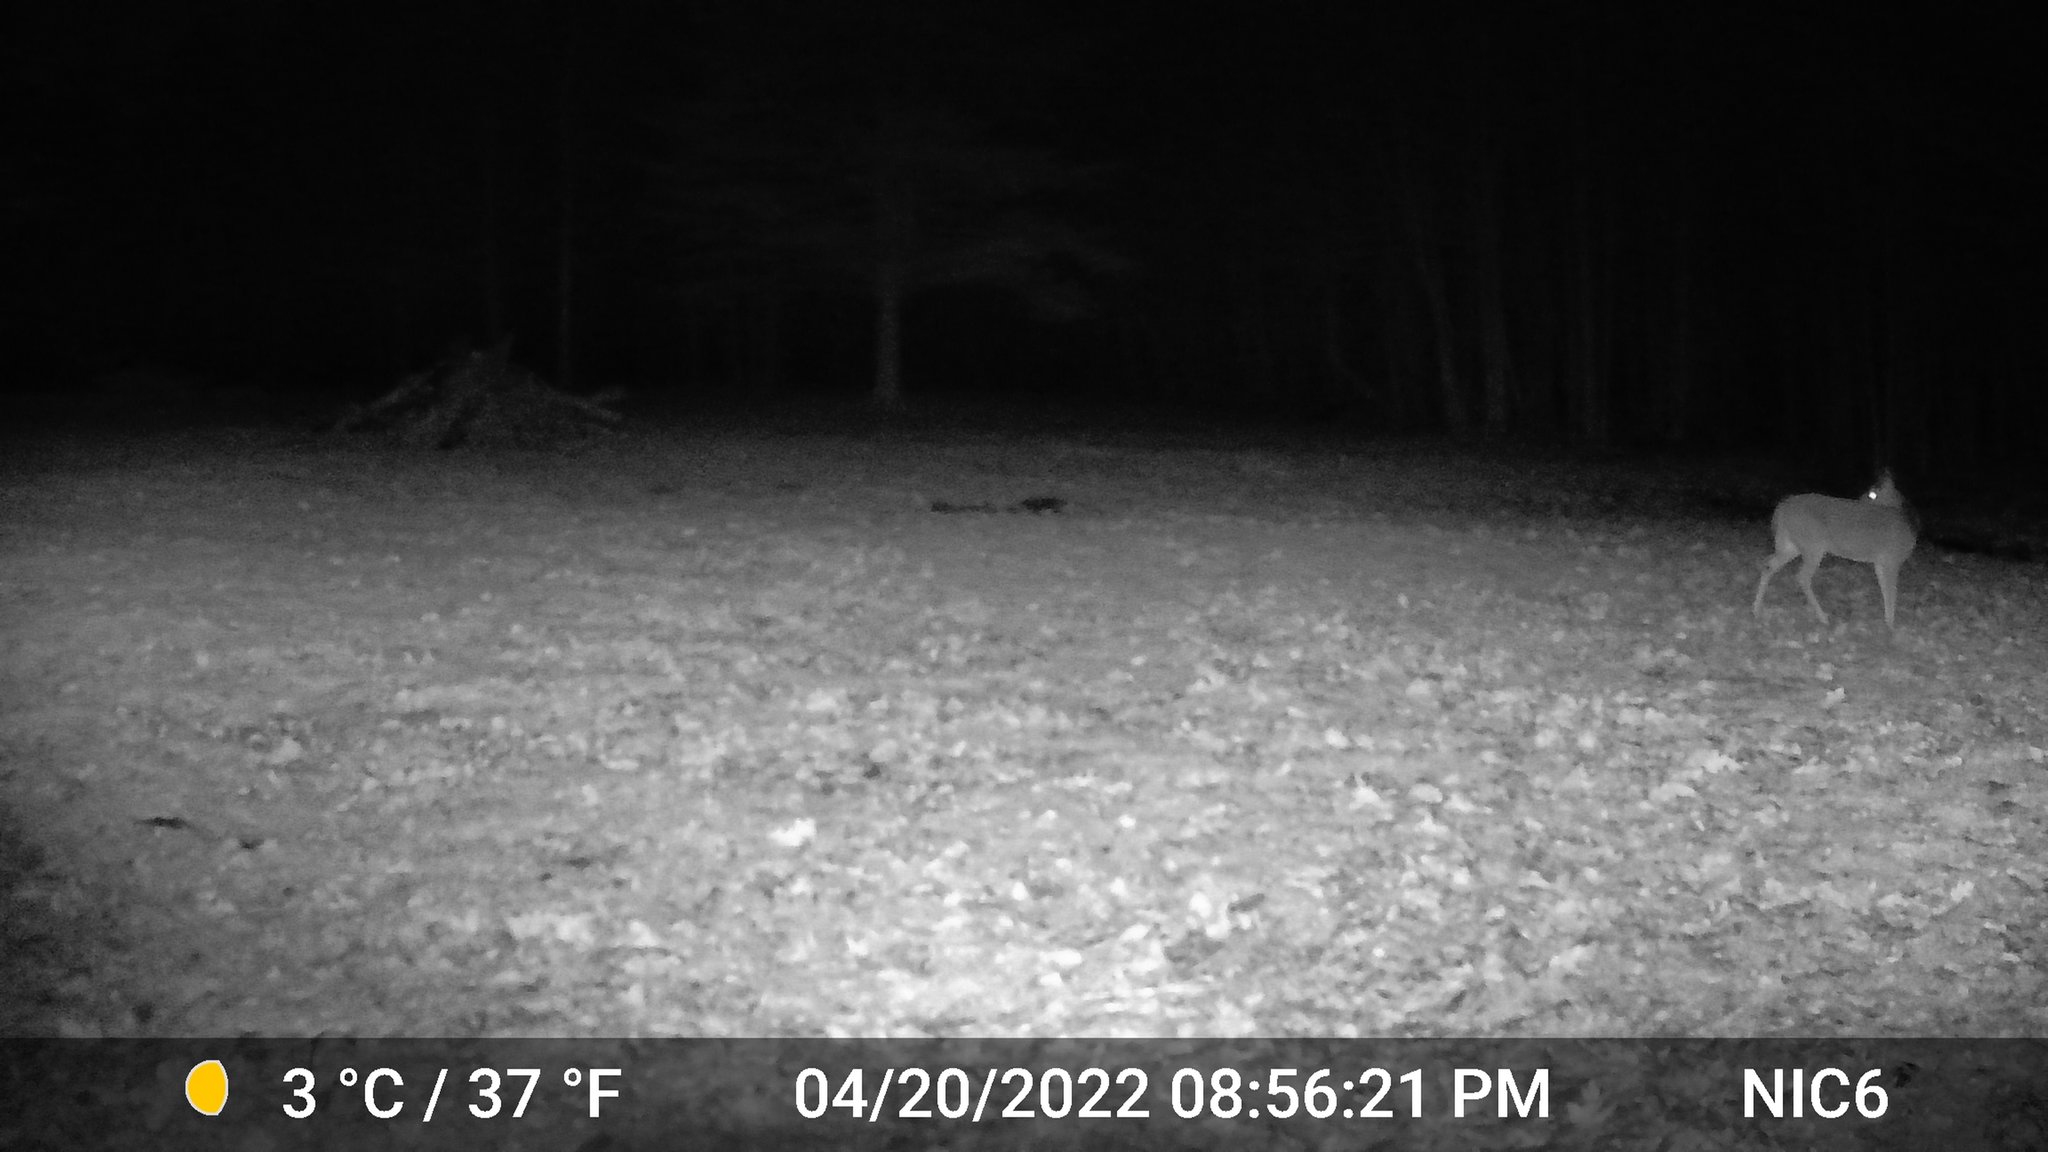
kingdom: Animalia
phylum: Chordata
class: Mammalia
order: Artiodactyla
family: Cervidae
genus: Odocoileus
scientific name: Odocoileus virginianus
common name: White-tailed deer
